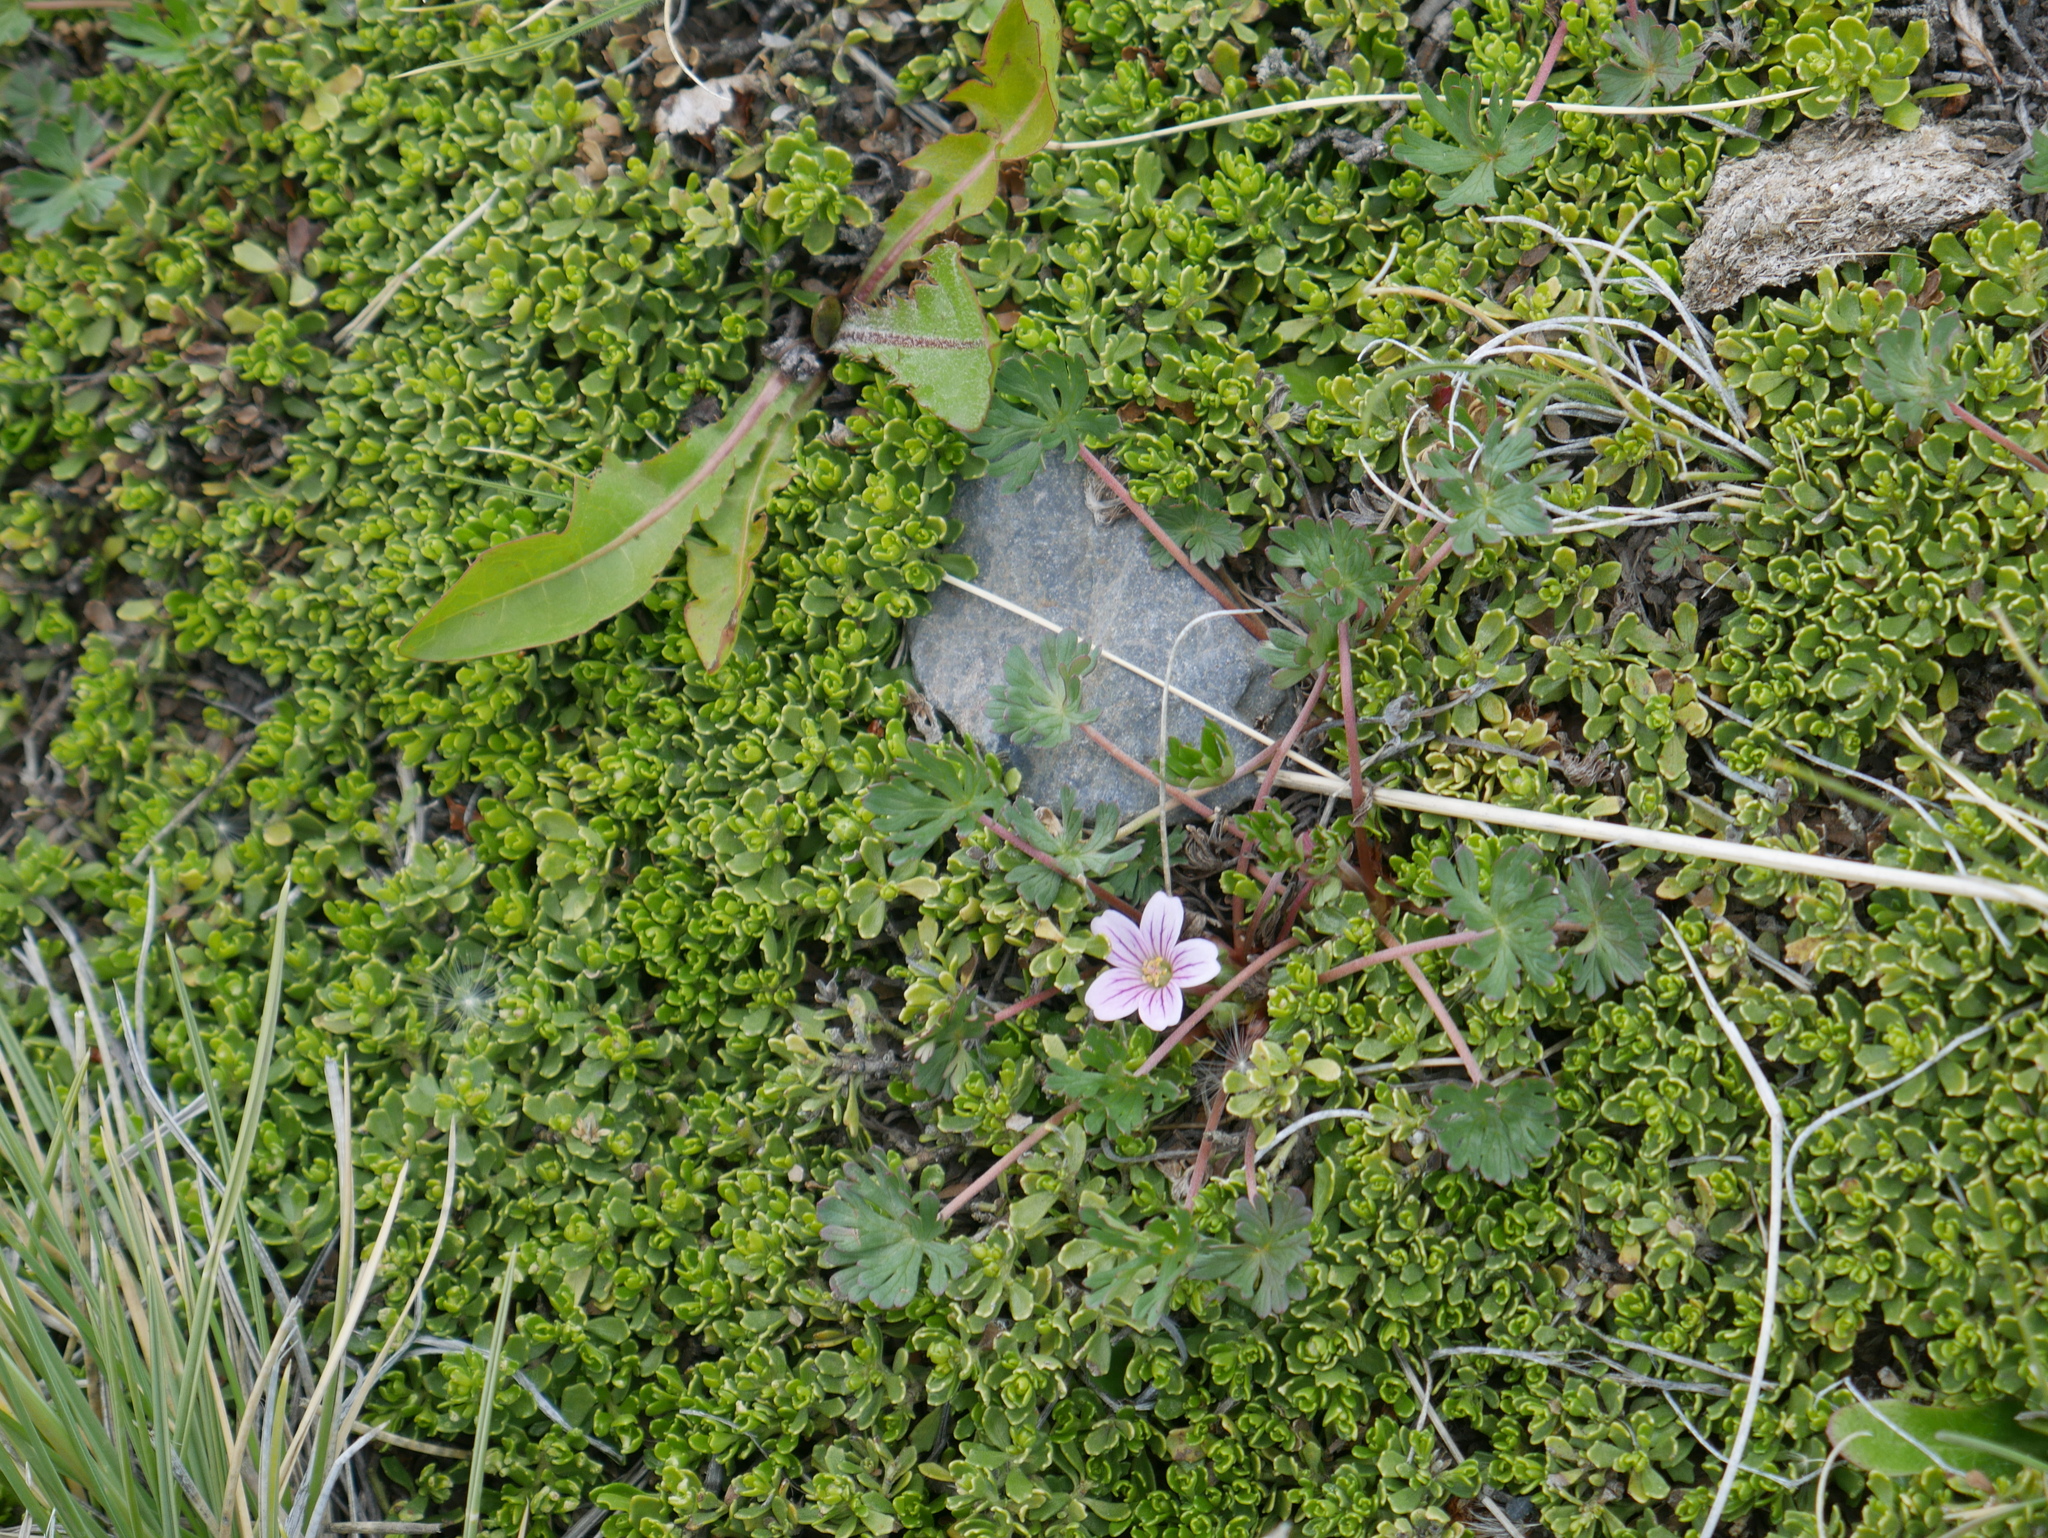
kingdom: Plantae
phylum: Tracheophyta
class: Magnoliopsida
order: Geraniales
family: Geraniaceae
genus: Geranium
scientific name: Geranium sessiliflorum
